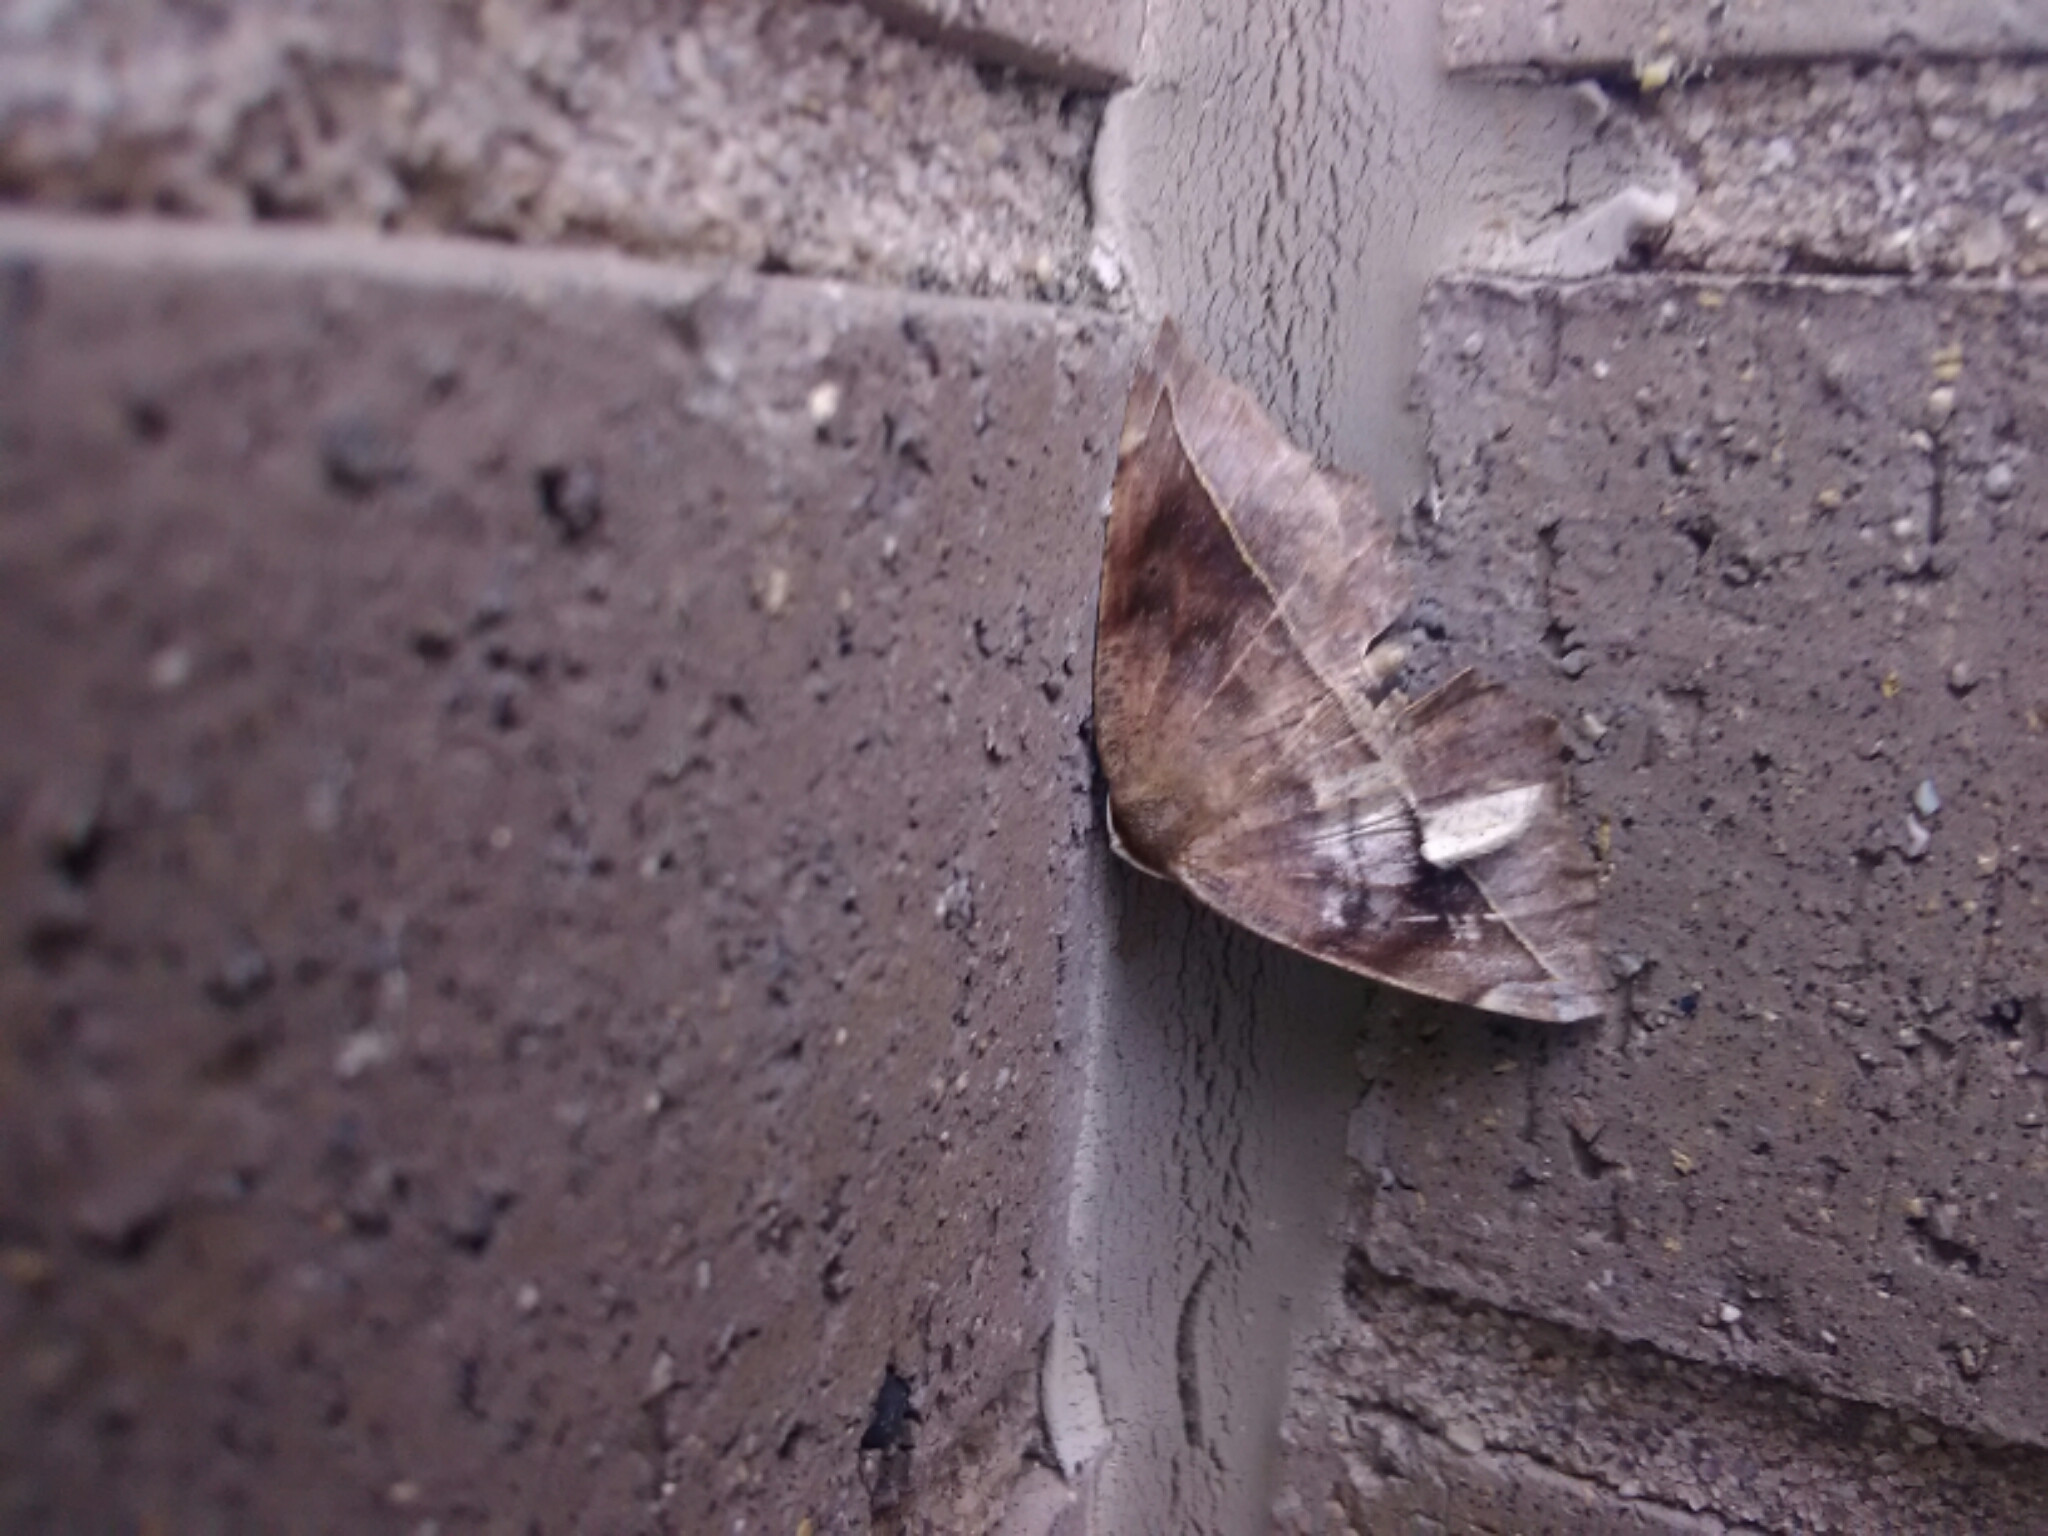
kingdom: Animalia
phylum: Arthropoda
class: Insecta
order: Lepidoptera
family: Geometridae
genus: Eutrapela
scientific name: Eutrapela clemataria
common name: Curved-toothed geometer
